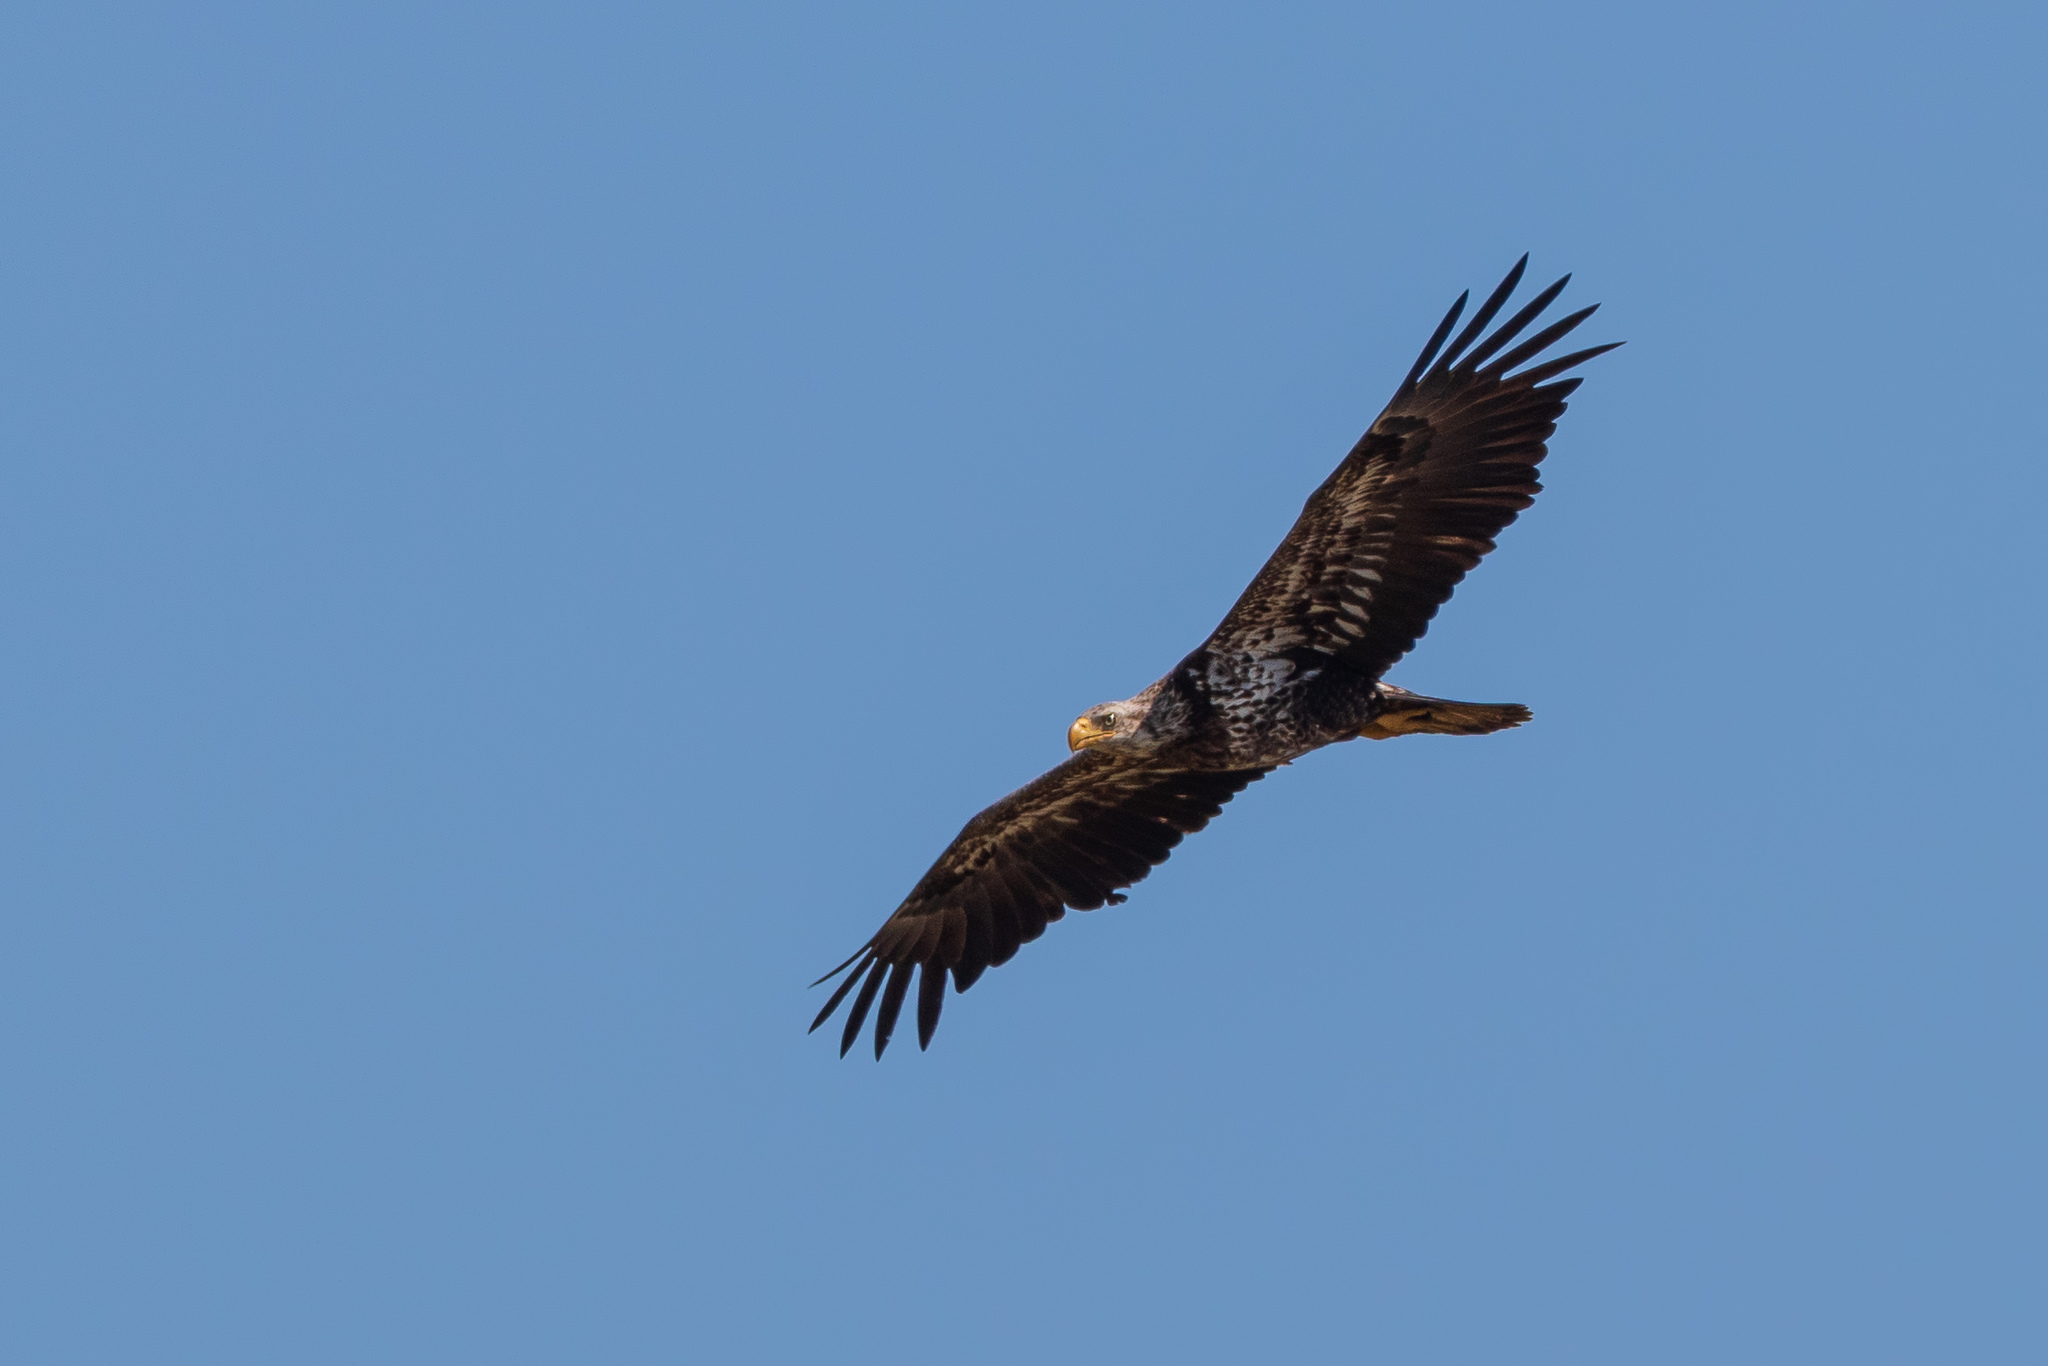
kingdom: Animalia
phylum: Chordata
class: Aves
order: Accipitriformes
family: Accipitridae
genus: Haliaeetus
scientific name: Haliaeetus leucocephalus
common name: Bald eagle
